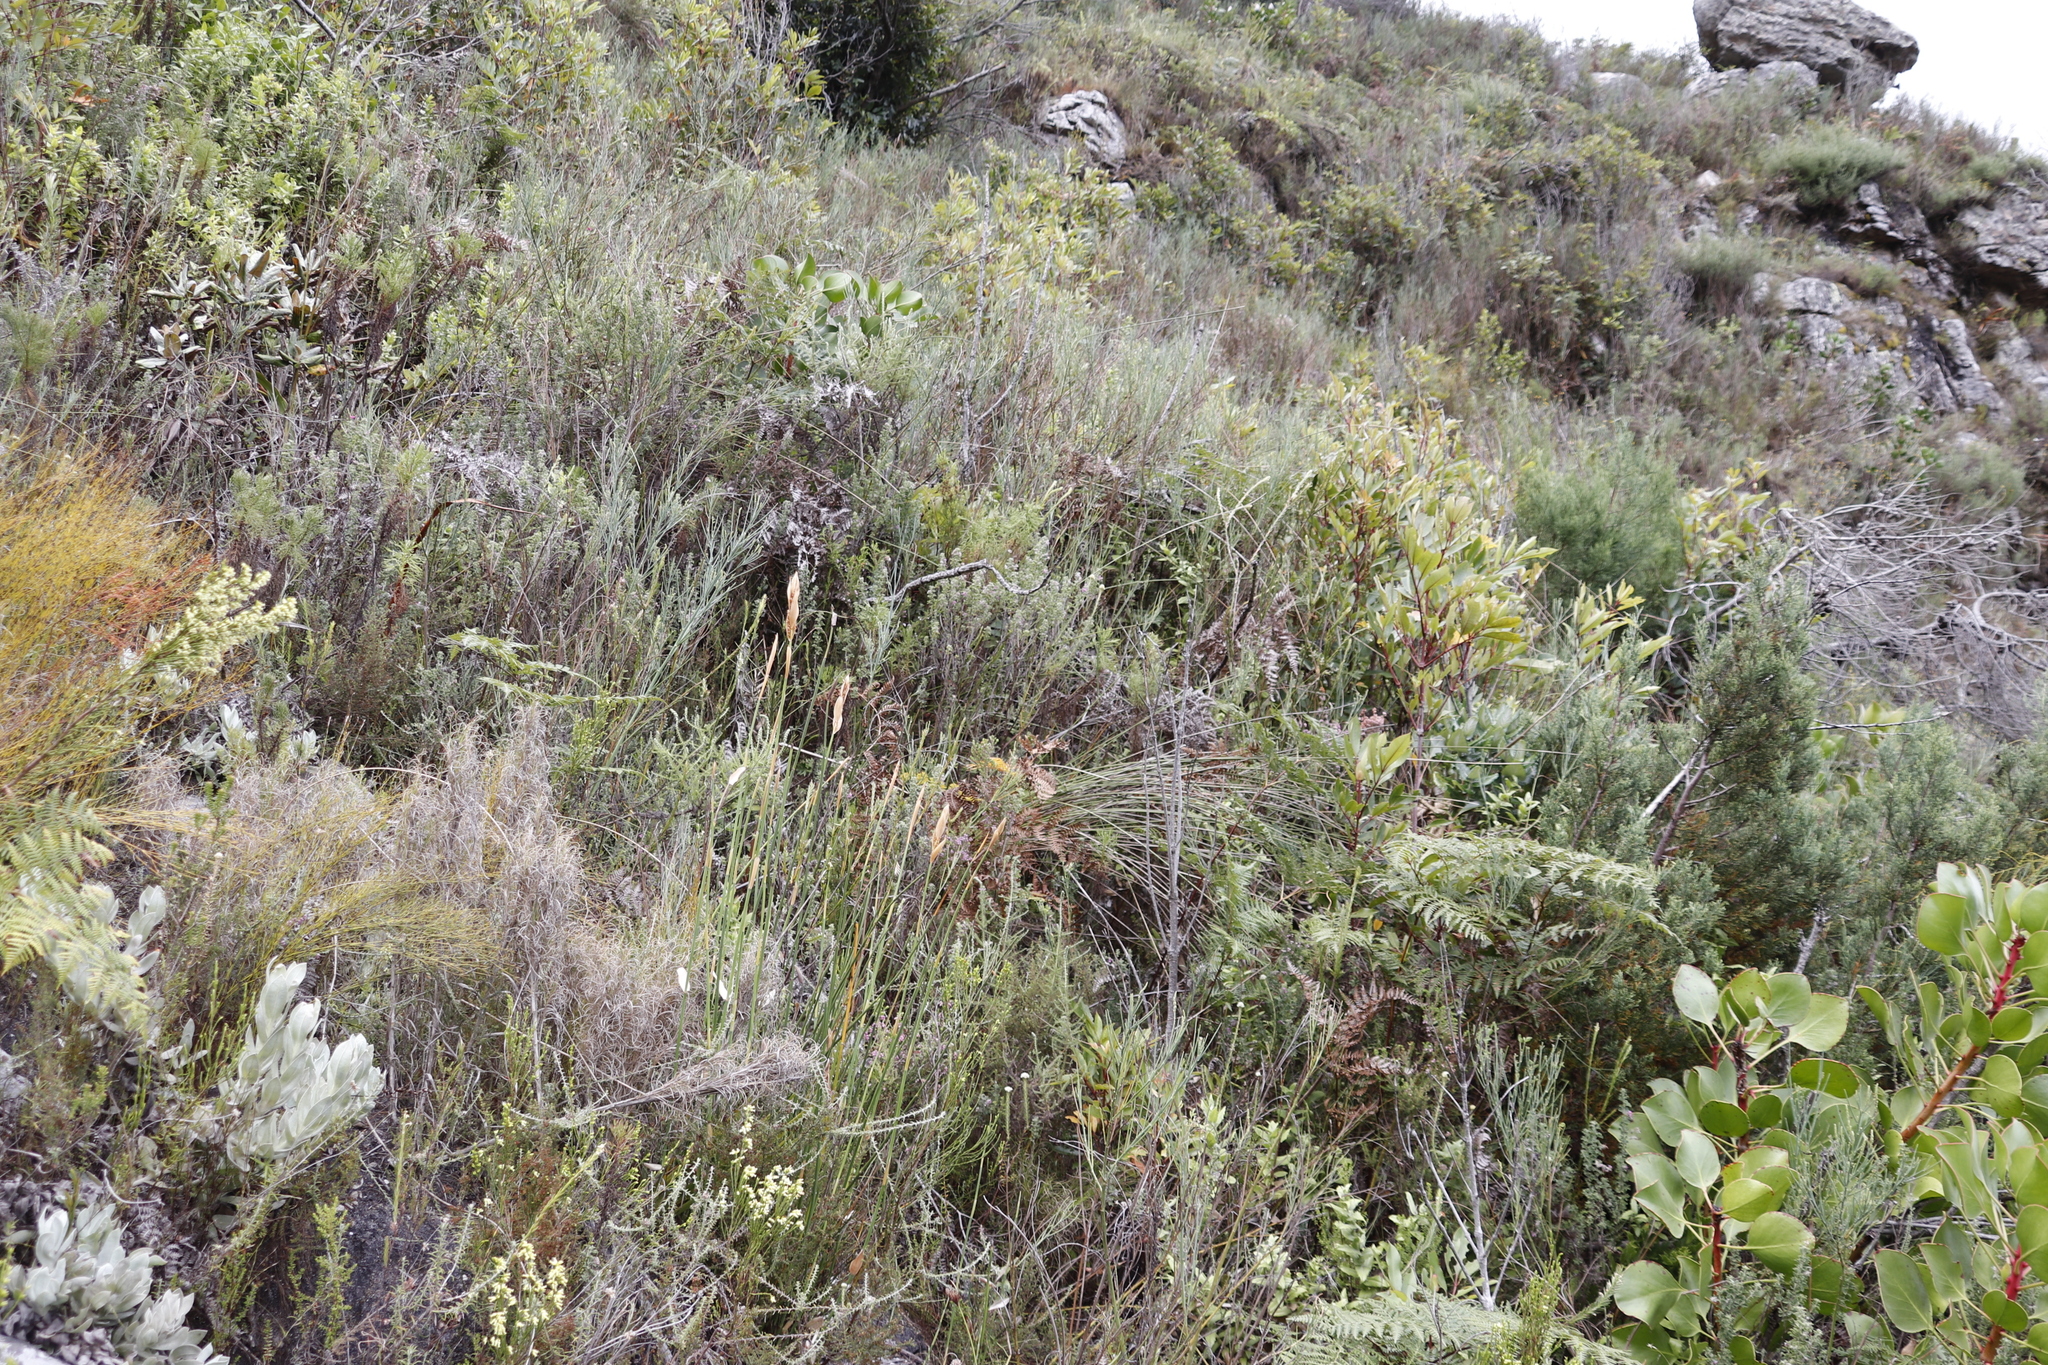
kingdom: Plantae
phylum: Tracheophyta
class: Magnoliopsida
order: Fabales
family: Fabaceae
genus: Indigofera
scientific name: Indigofera candolleana
